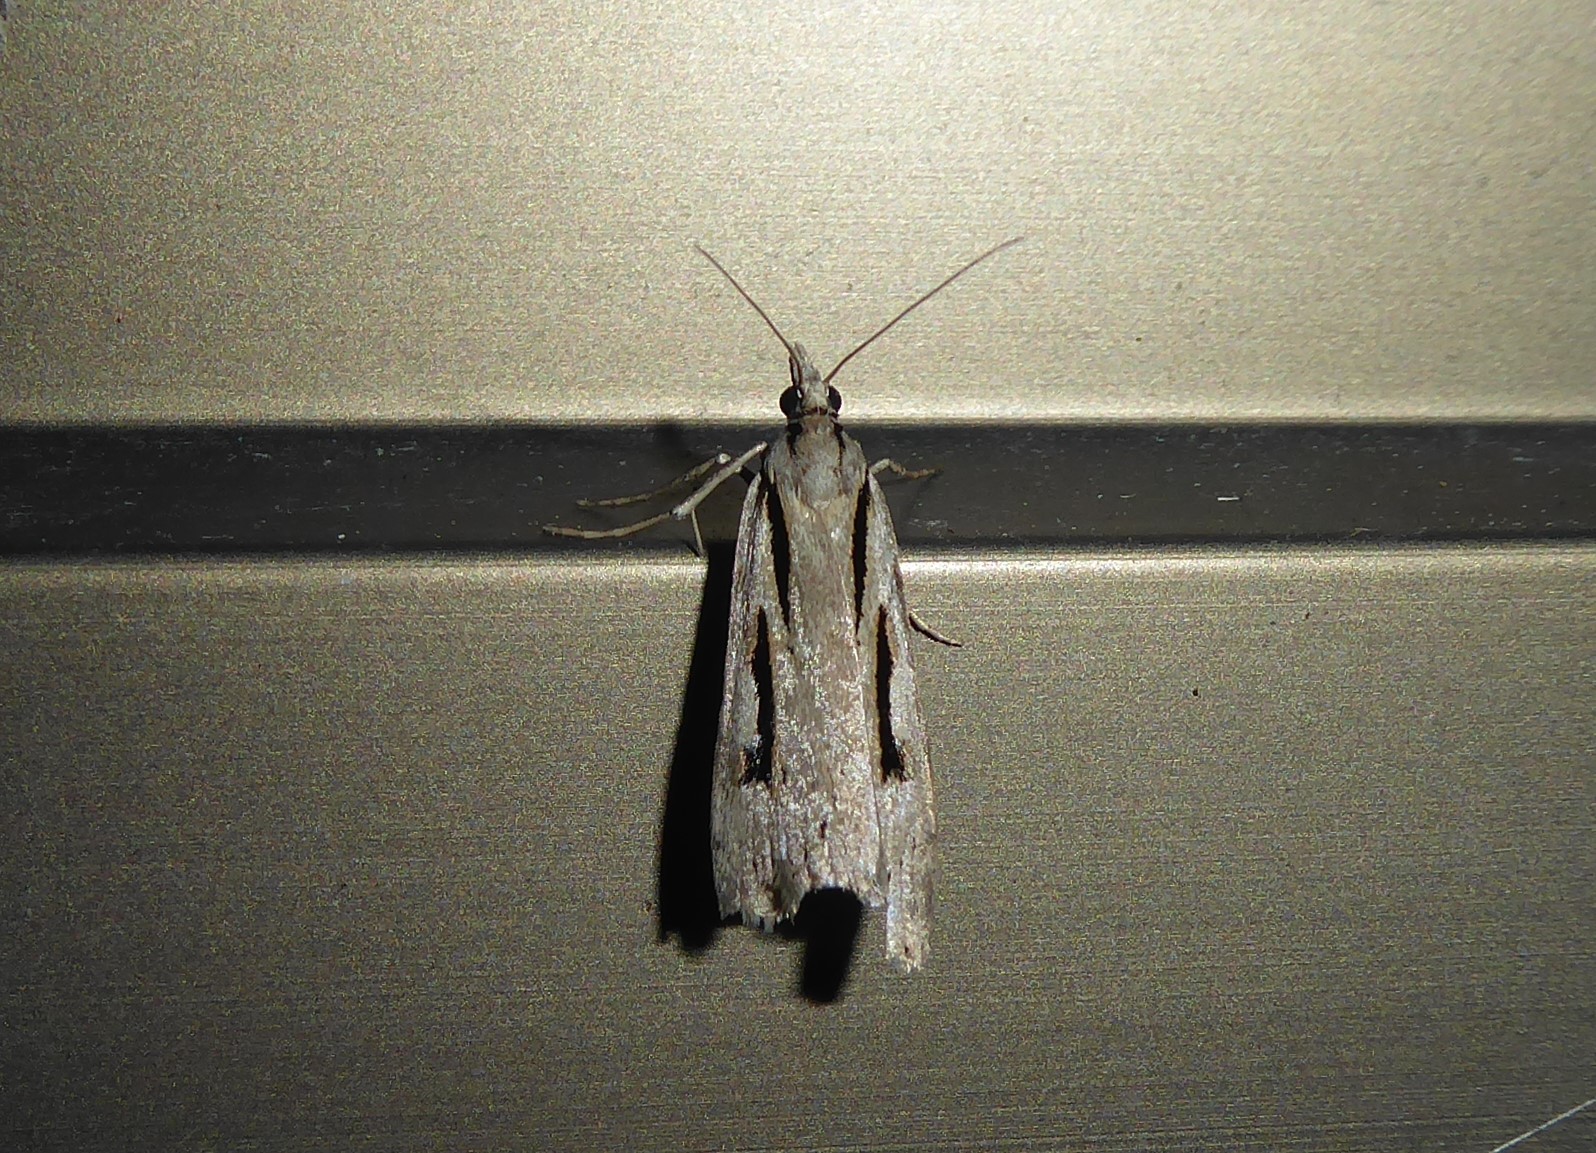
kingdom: Animalia
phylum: Arthropoda
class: Insecta
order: Lepidoptera
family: Crambidae
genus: Scoparia
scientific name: Scoparia rotuellus
